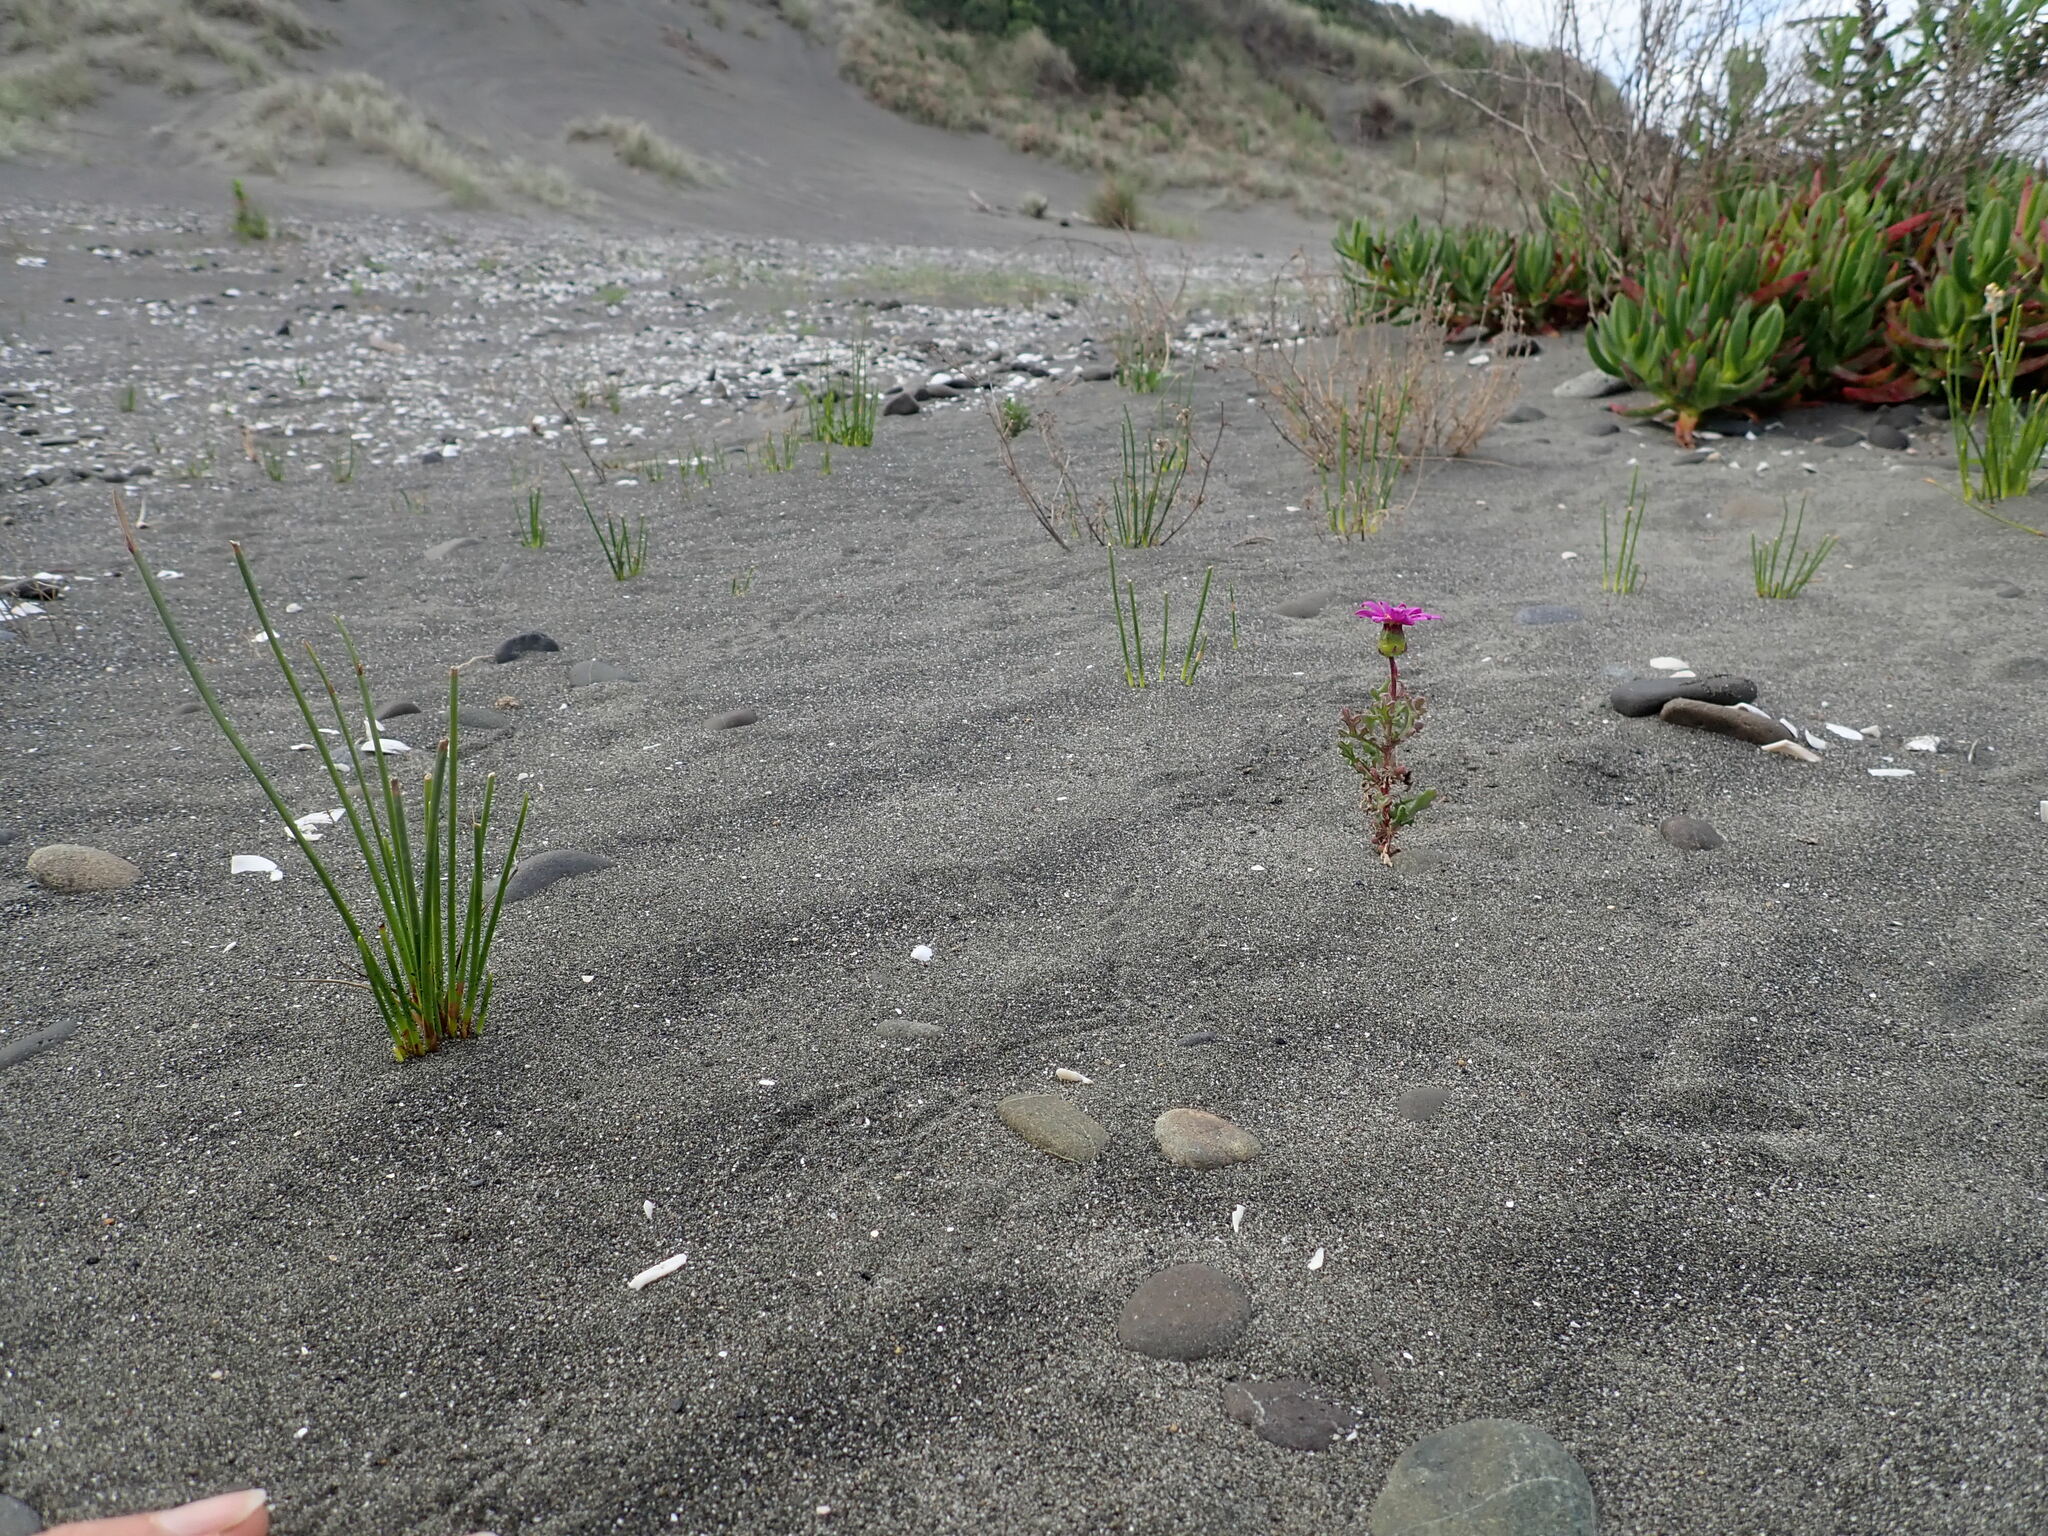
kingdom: Plantae
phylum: Tracheophyta
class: Magnoliopsida
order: Asterales
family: Asteraceae
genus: Senecio
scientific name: Senecio elegans
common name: Purple groundsel
